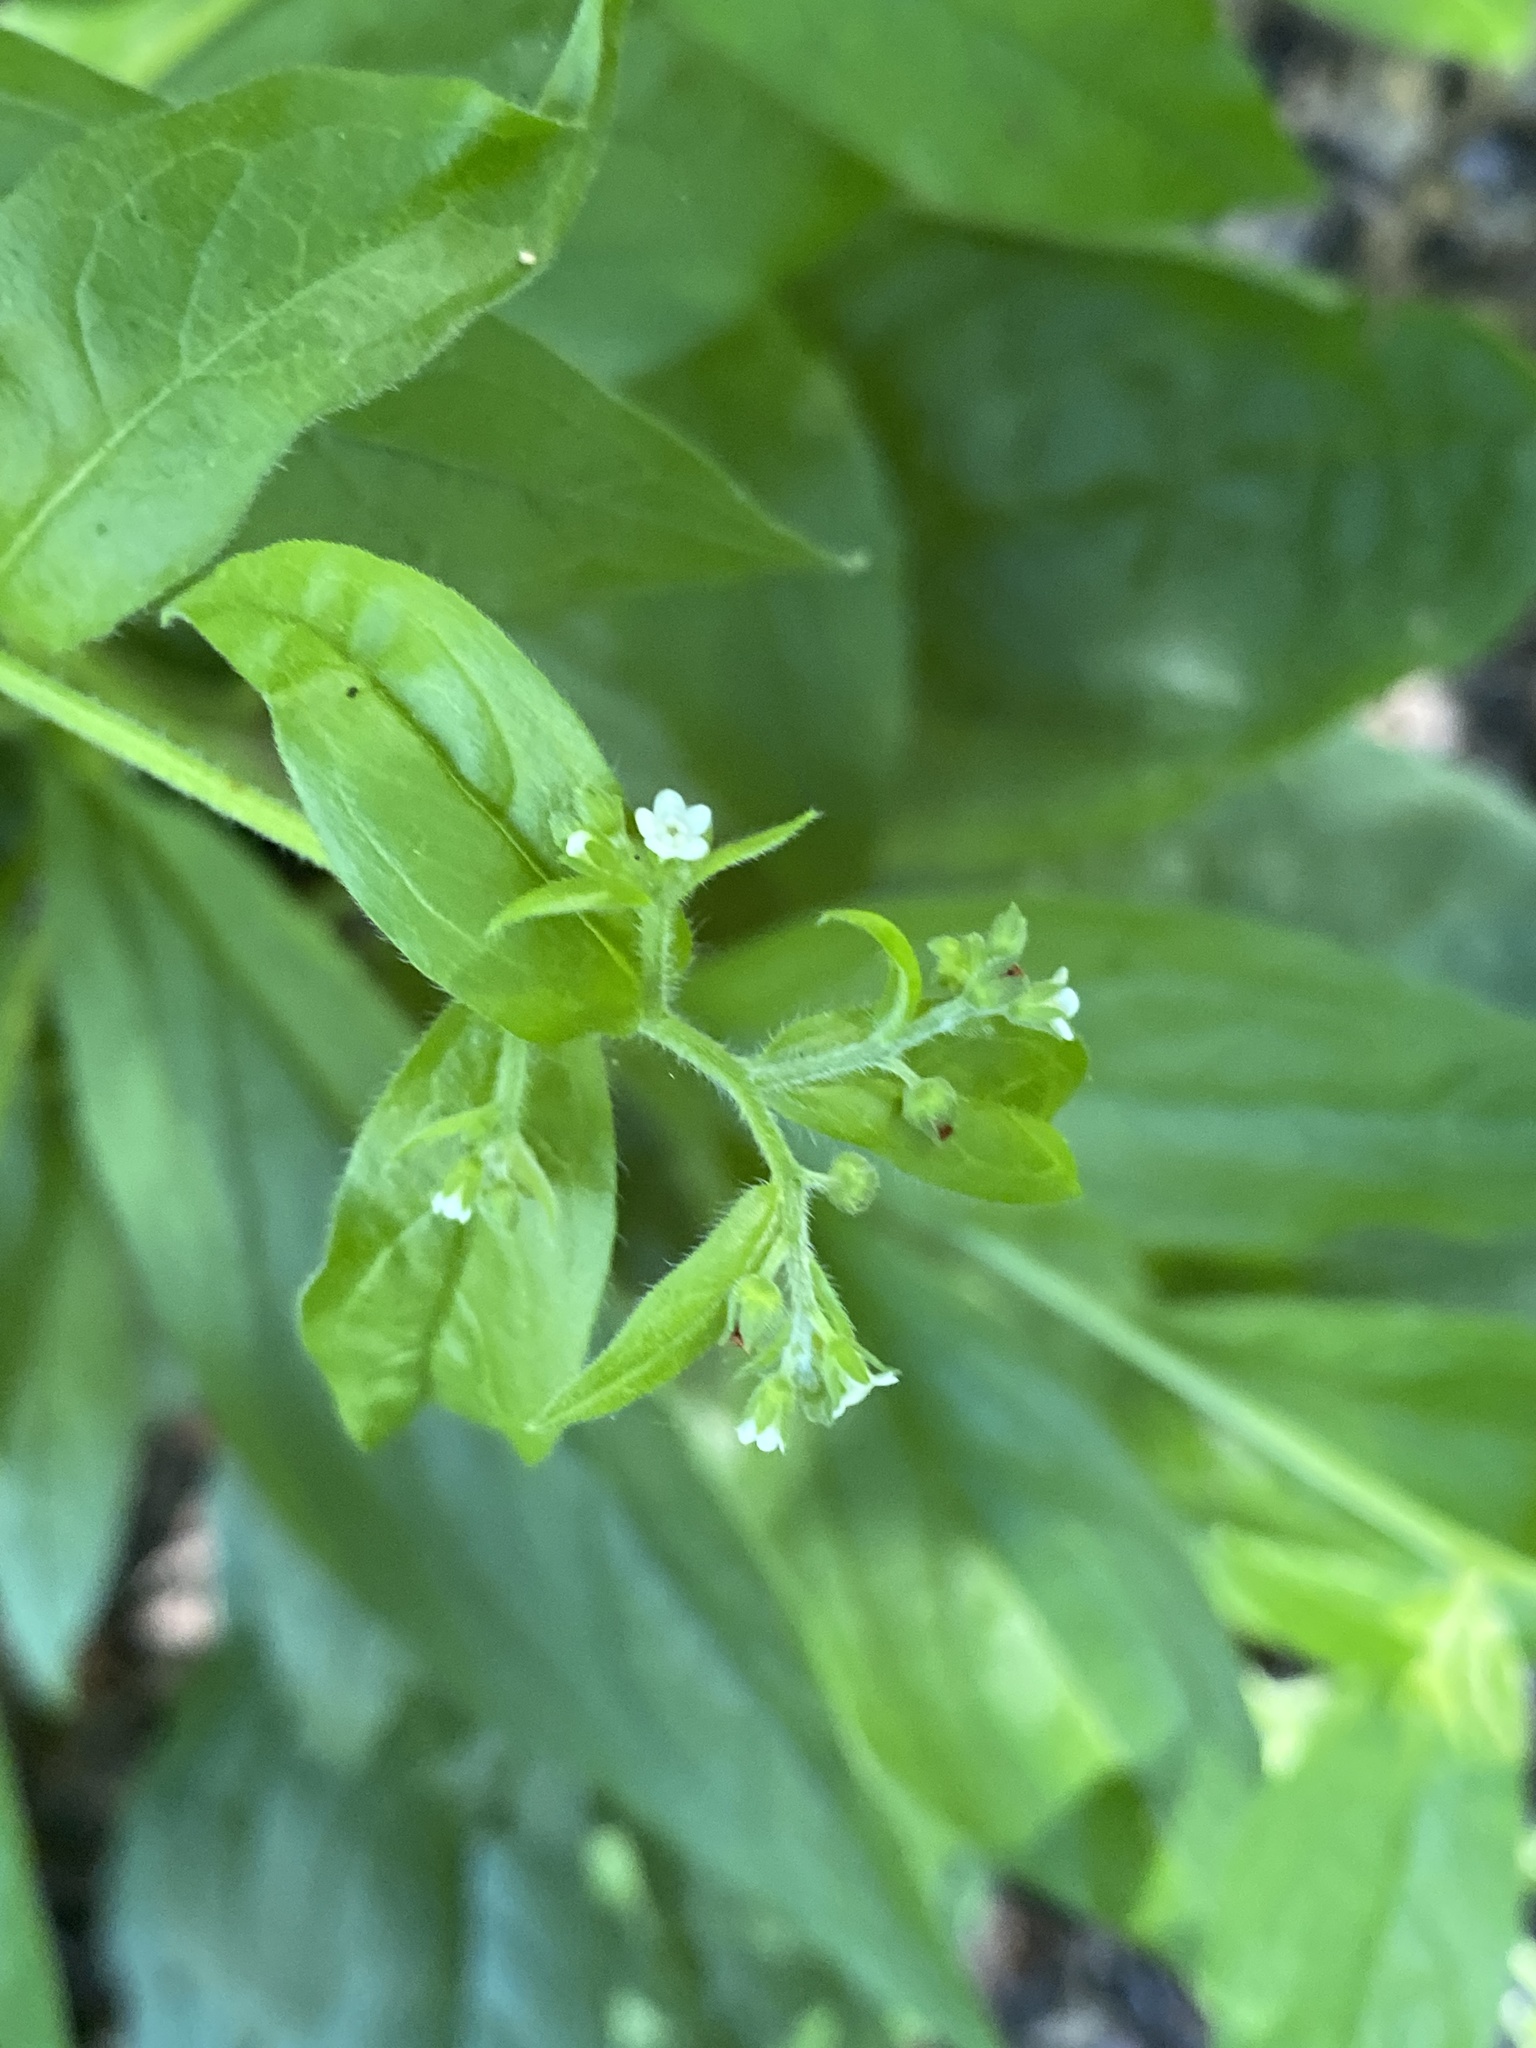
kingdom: Plantae
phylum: Tracheophyta
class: Magnoliopsida
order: Boraginales
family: Boraginaceae
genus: Hackelia
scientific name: Hackelia virginiana
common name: Beggar's-lice
